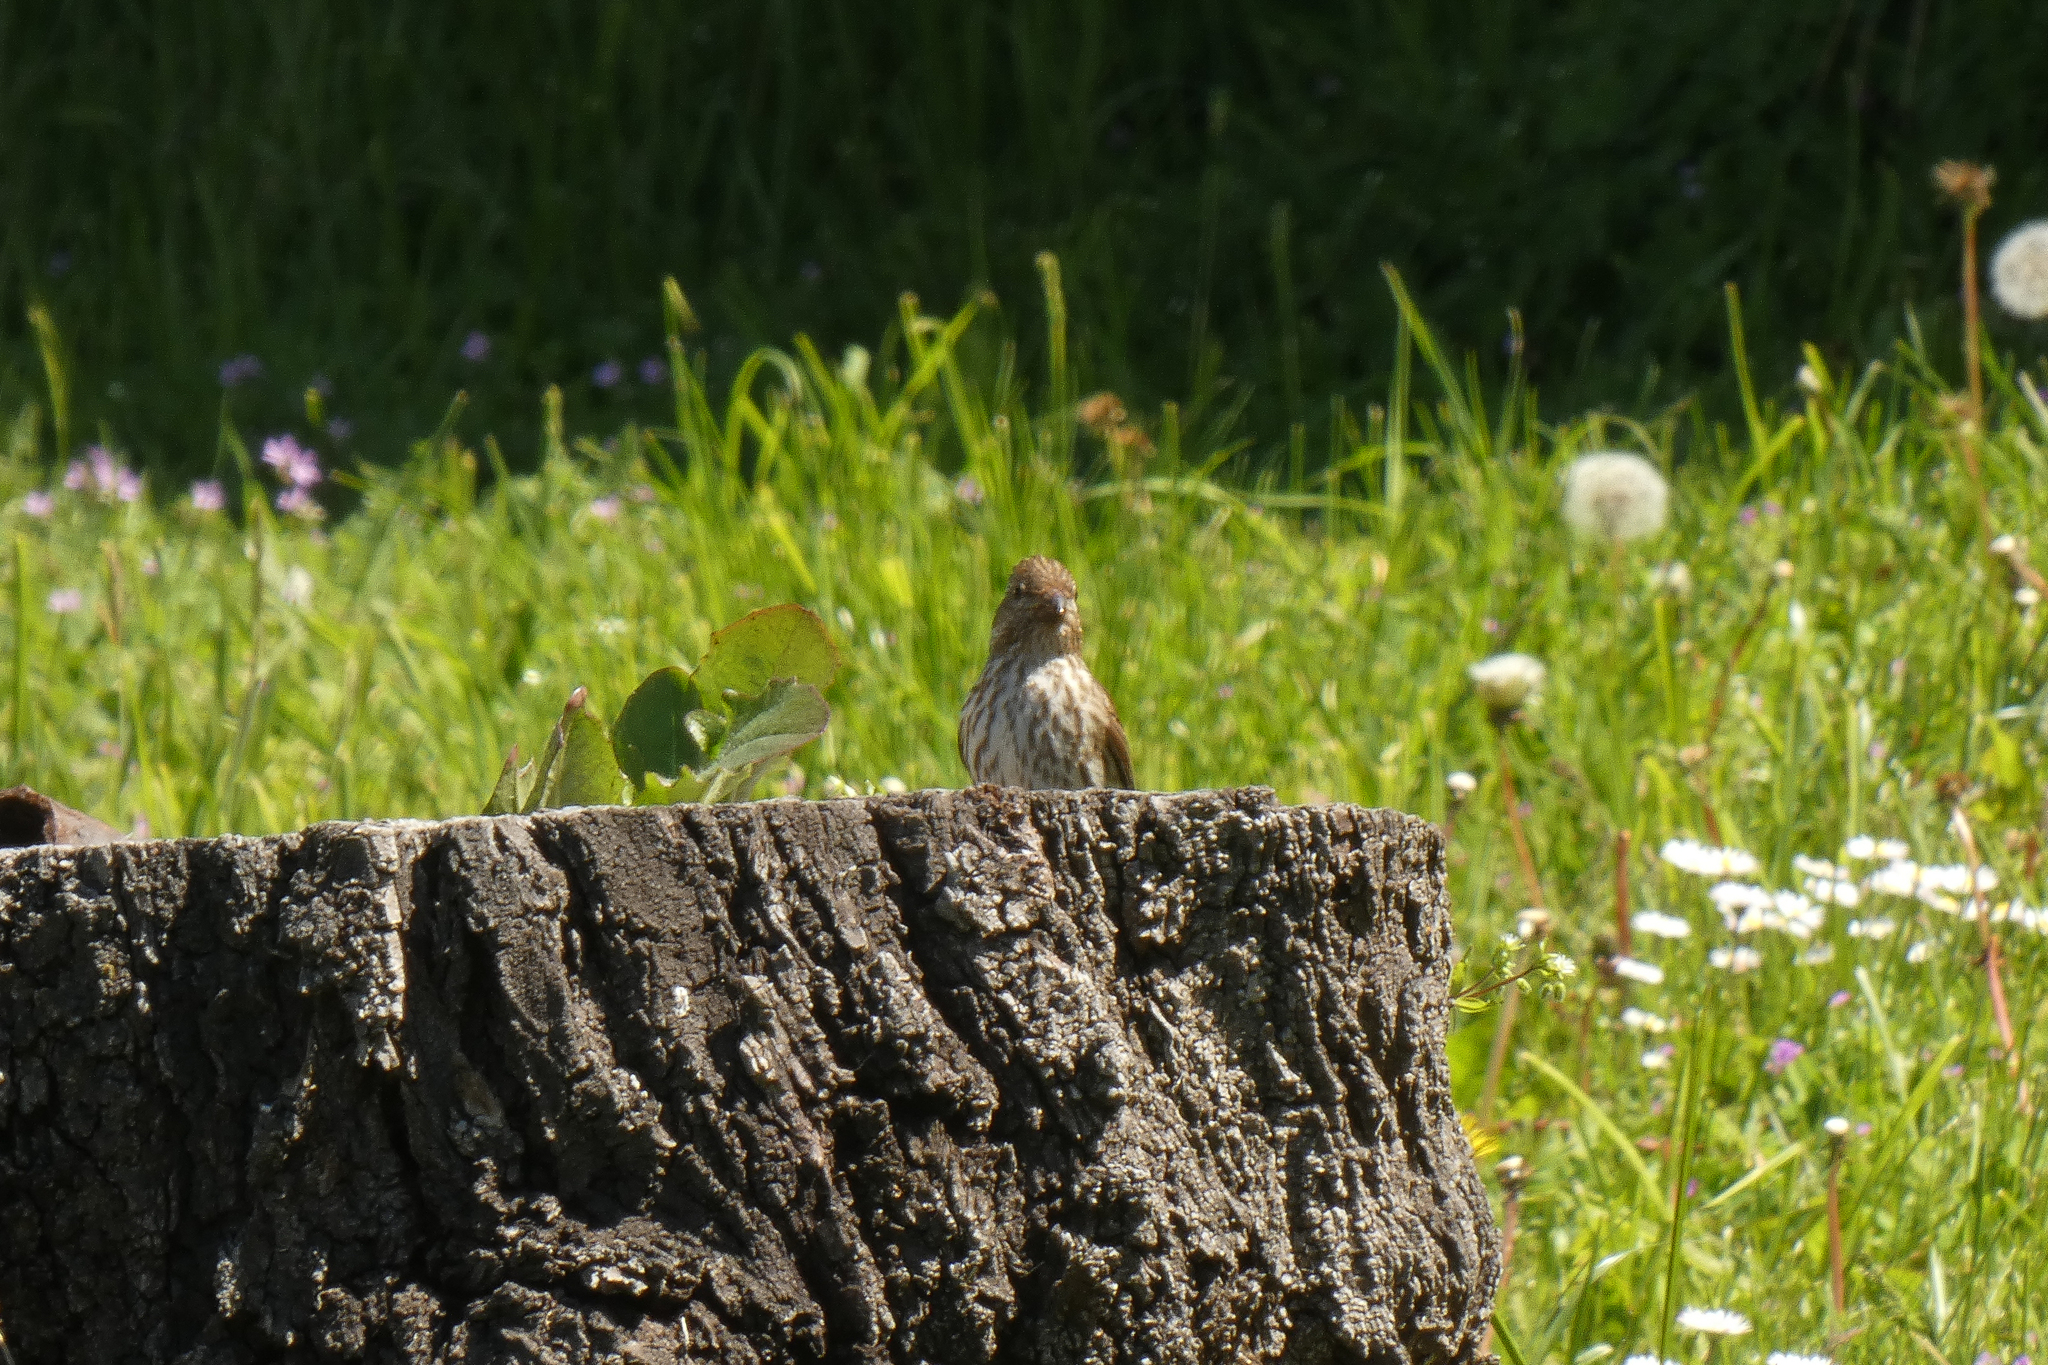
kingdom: Animalia
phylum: Chordata
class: Aves
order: Passeriformes
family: Fringillidae
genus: Haemorhous
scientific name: Haemorhous purpureus
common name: Purple finch
